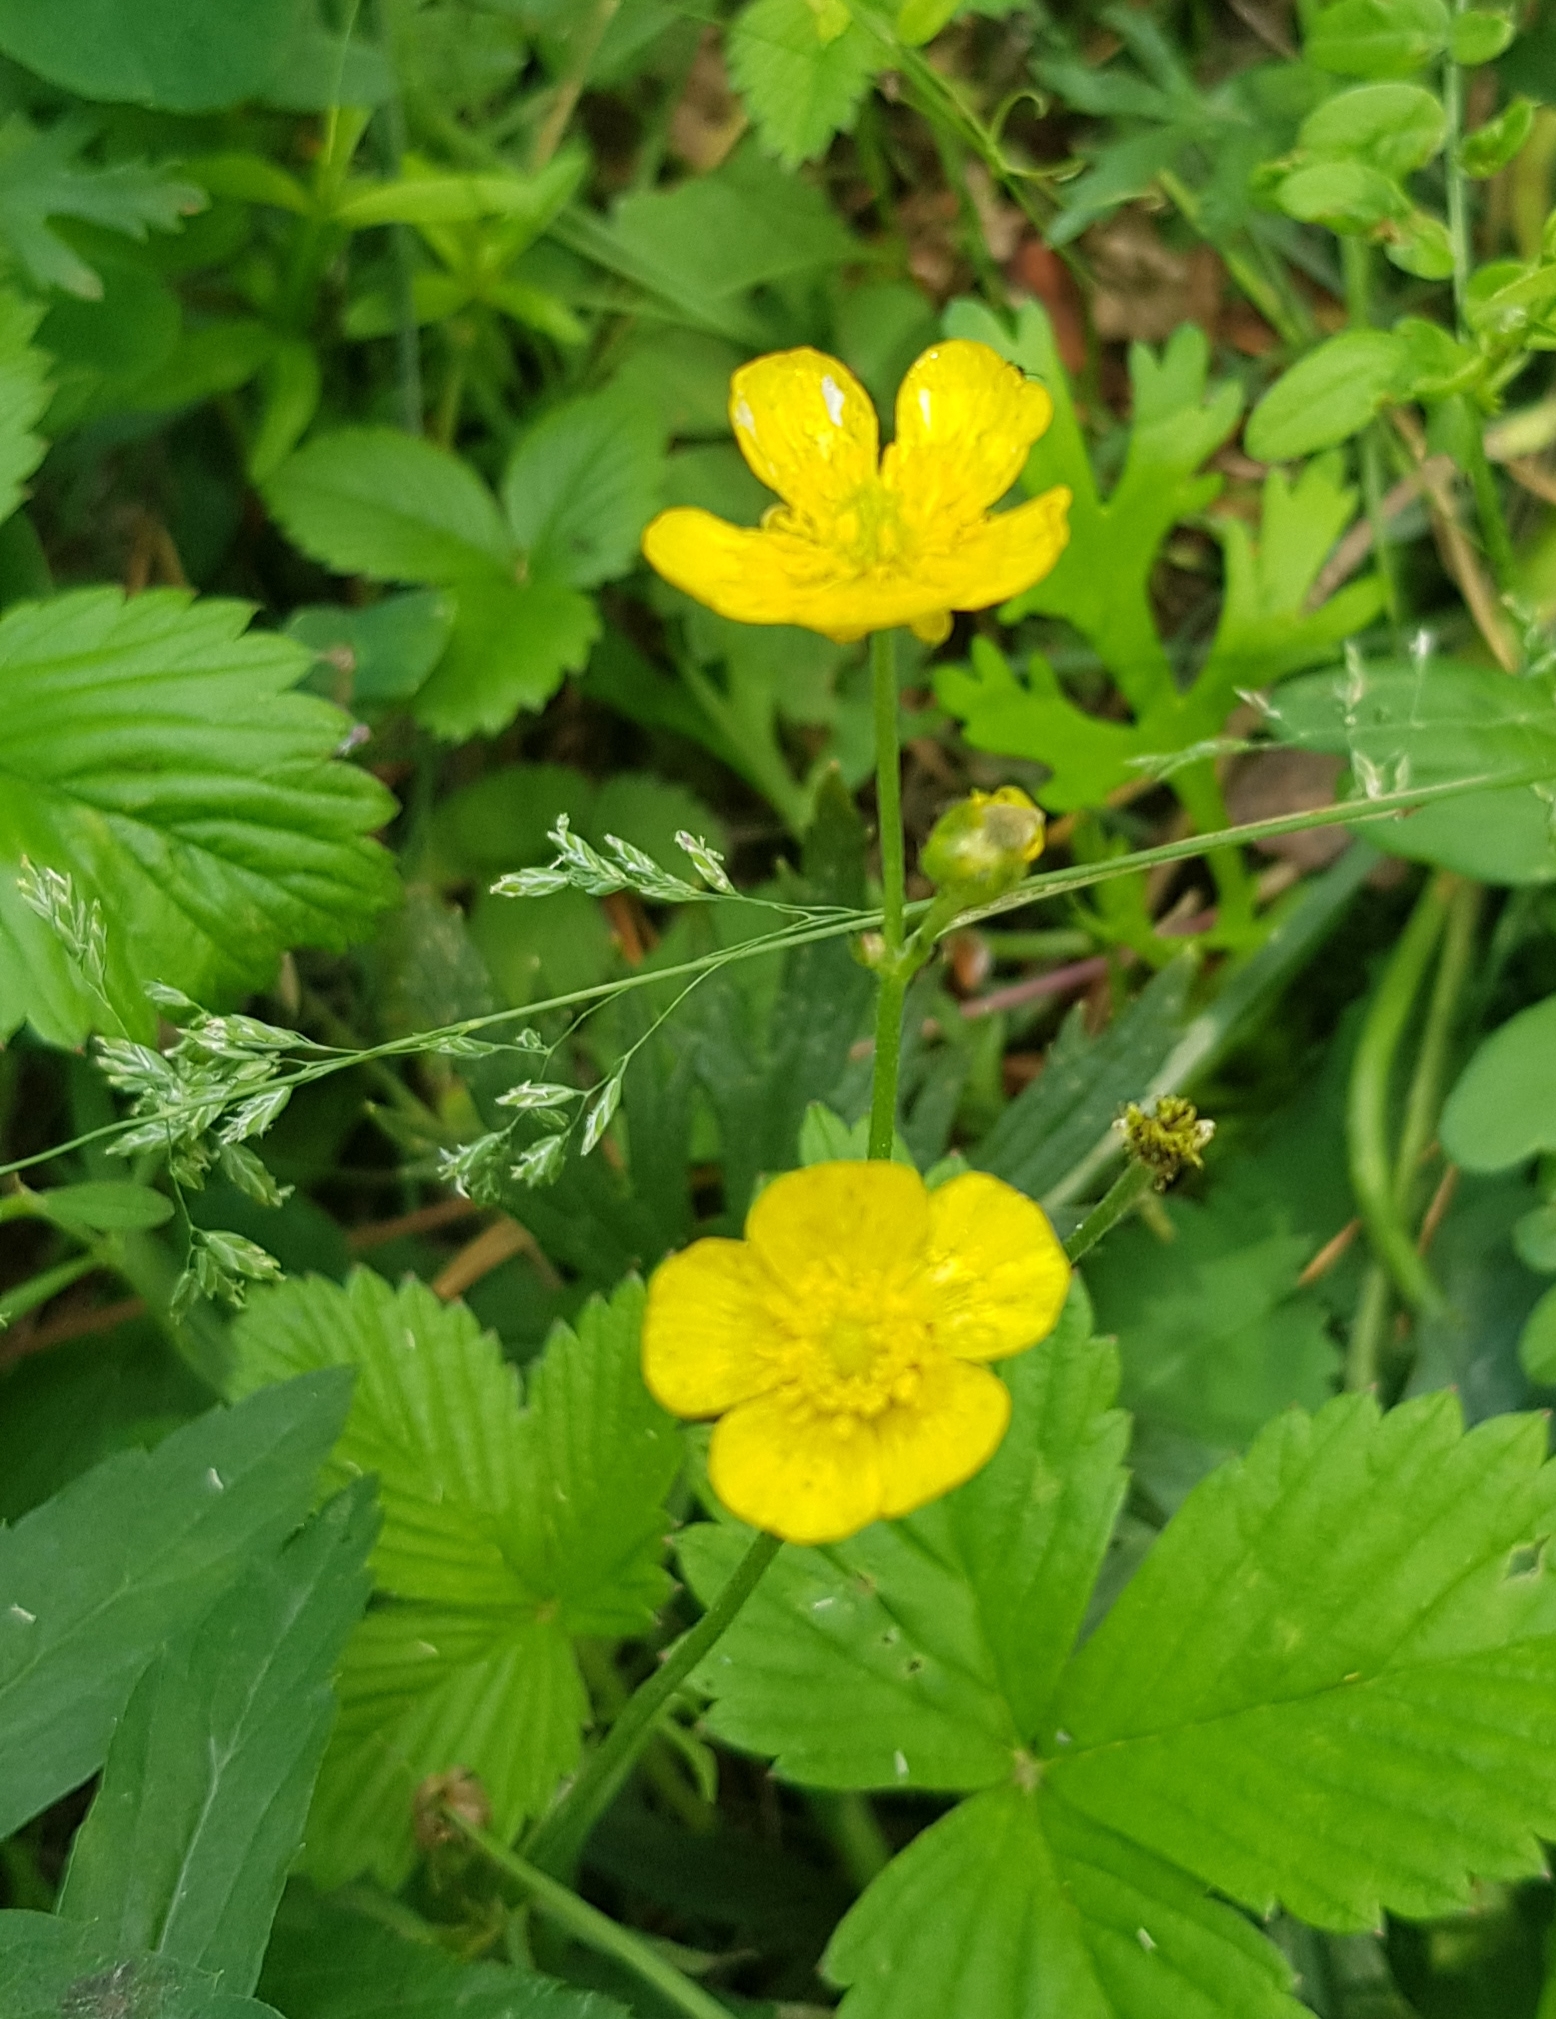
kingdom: Plantae
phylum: Tracheophyta
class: Magnoliopsida
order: Ranunculales
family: Ranunculaceae
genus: Ranunculus
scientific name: Ranunculus acris
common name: Meadow buttercup
